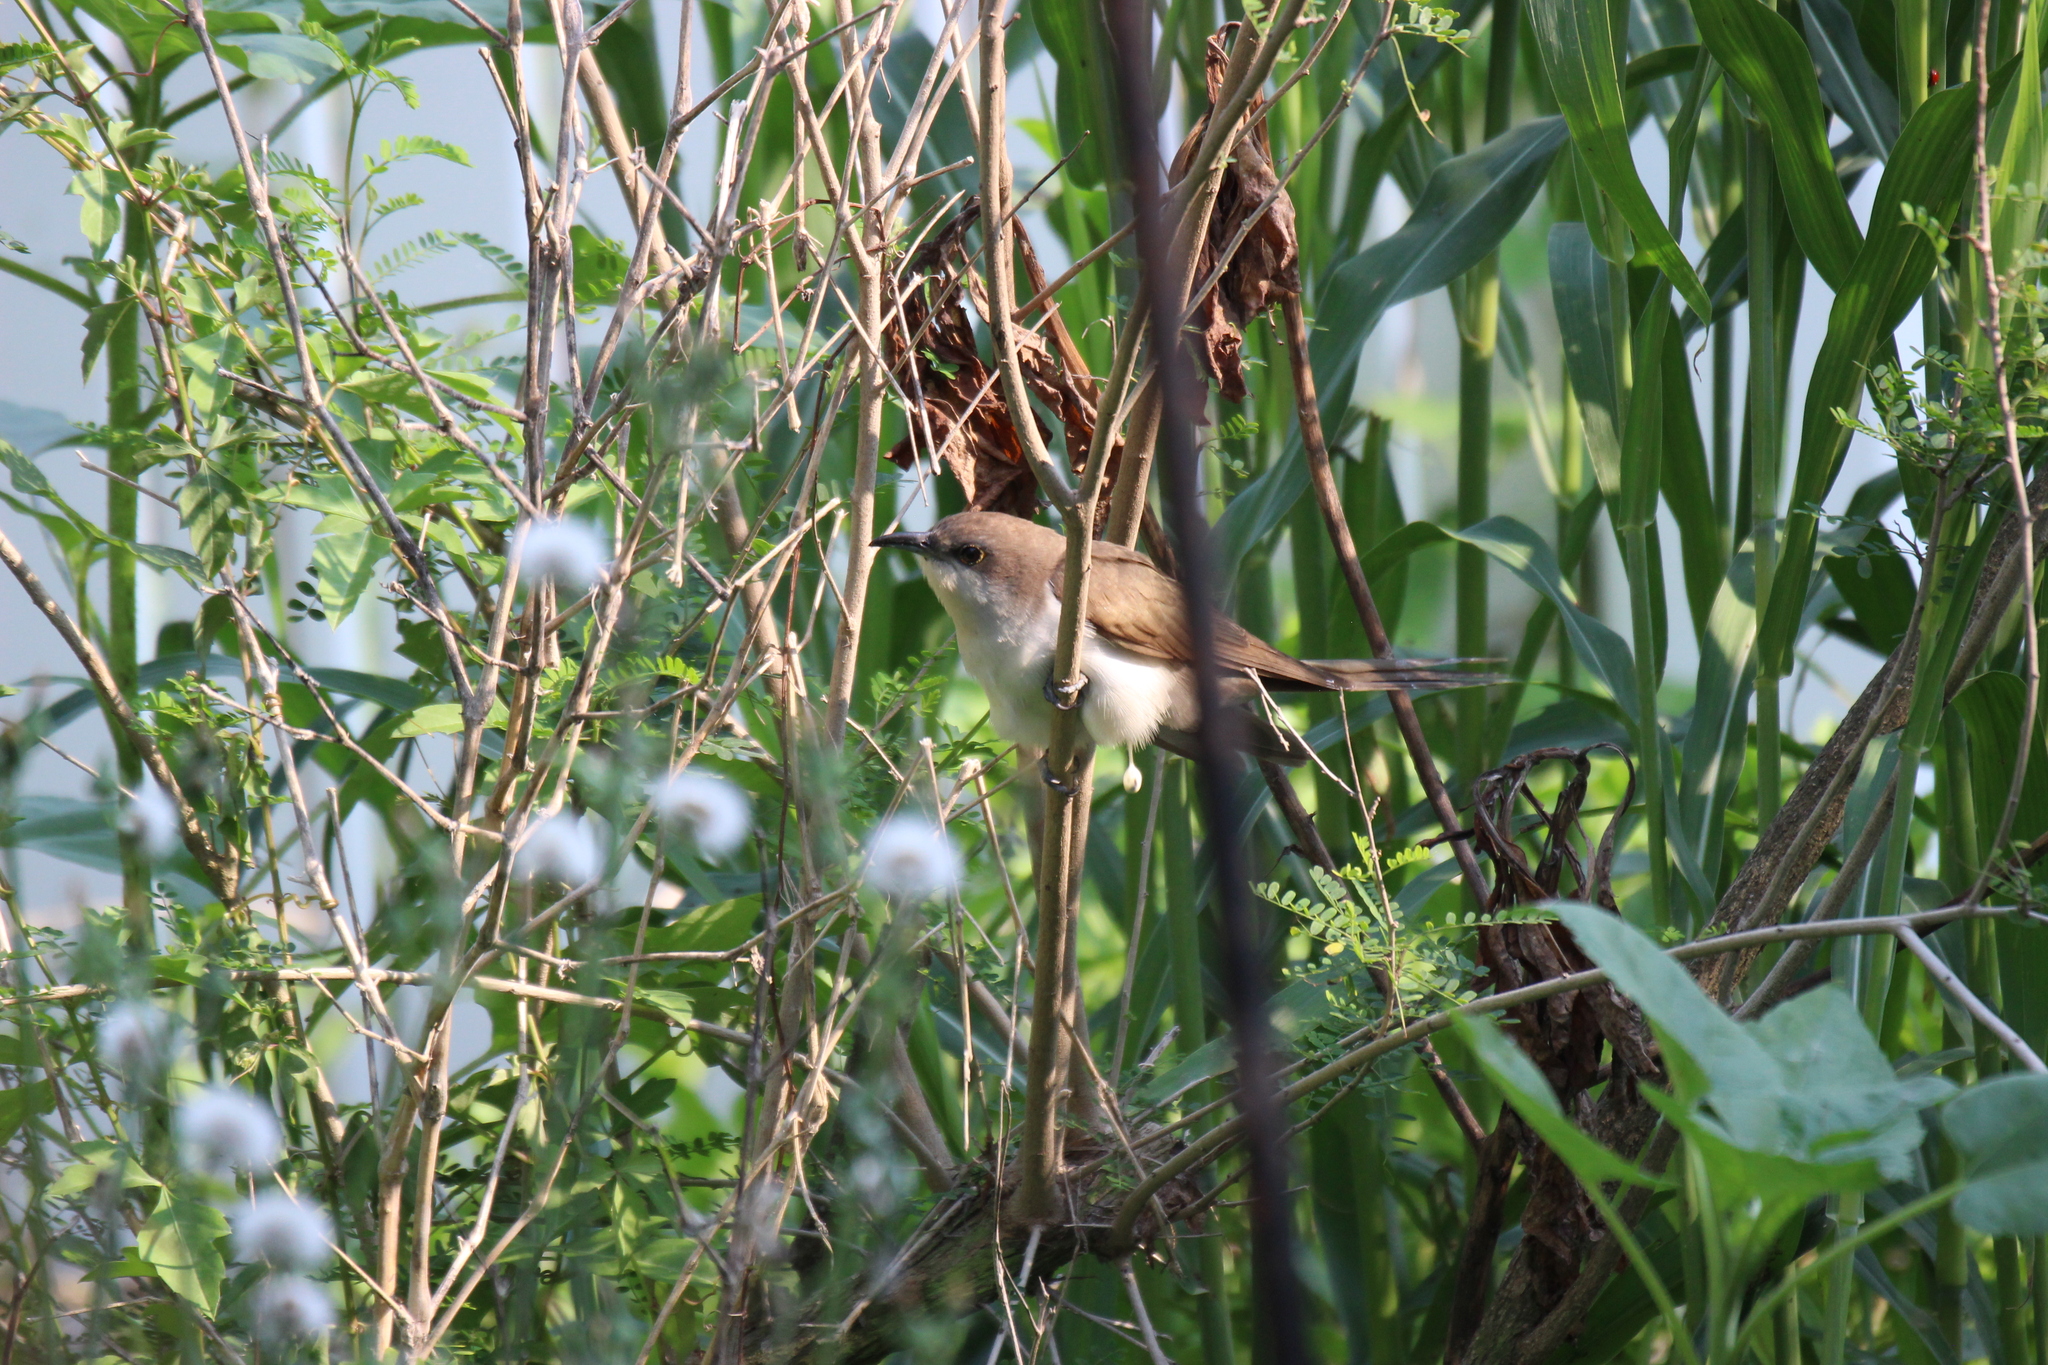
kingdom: Animalia
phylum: Chordata
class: Aves
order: Cuculiformes
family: Cuculidae
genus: Coccyzus
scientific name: Coccyzus erythropthalmus
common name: Black-billed cuckoo
